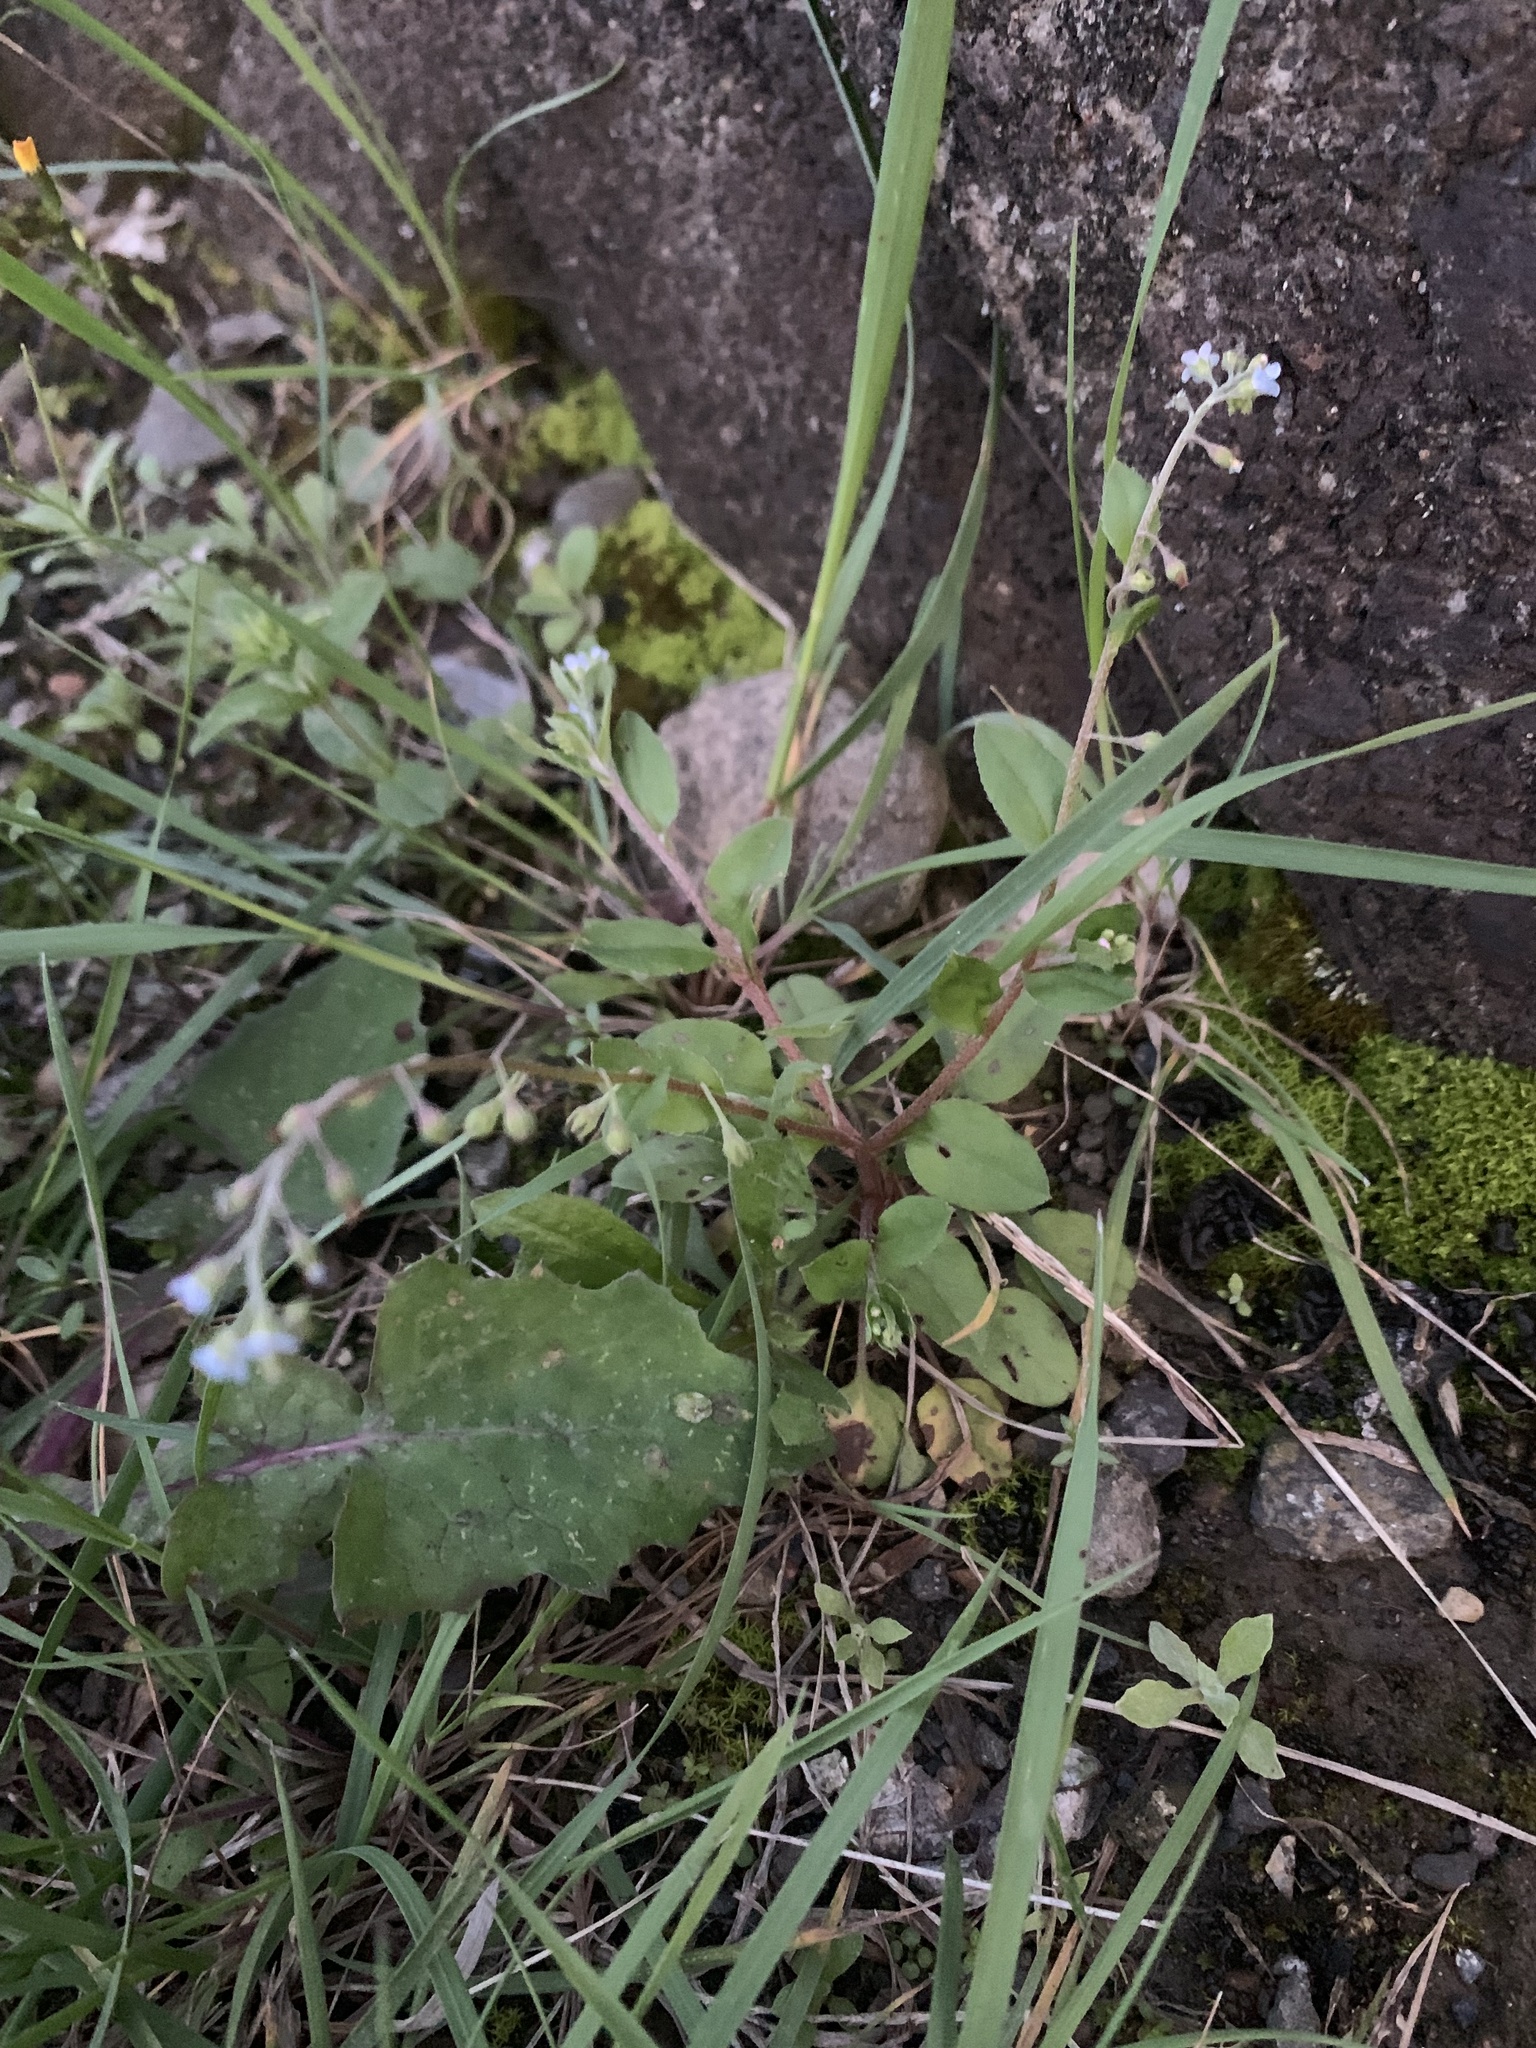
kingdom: Plantae
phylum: Tracheophyta
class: Magnoliopsida
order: Boraginales
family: Boraginaceae
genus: Trigonotis
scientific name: Trigonotis peduncularis
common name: Cucumber herb
